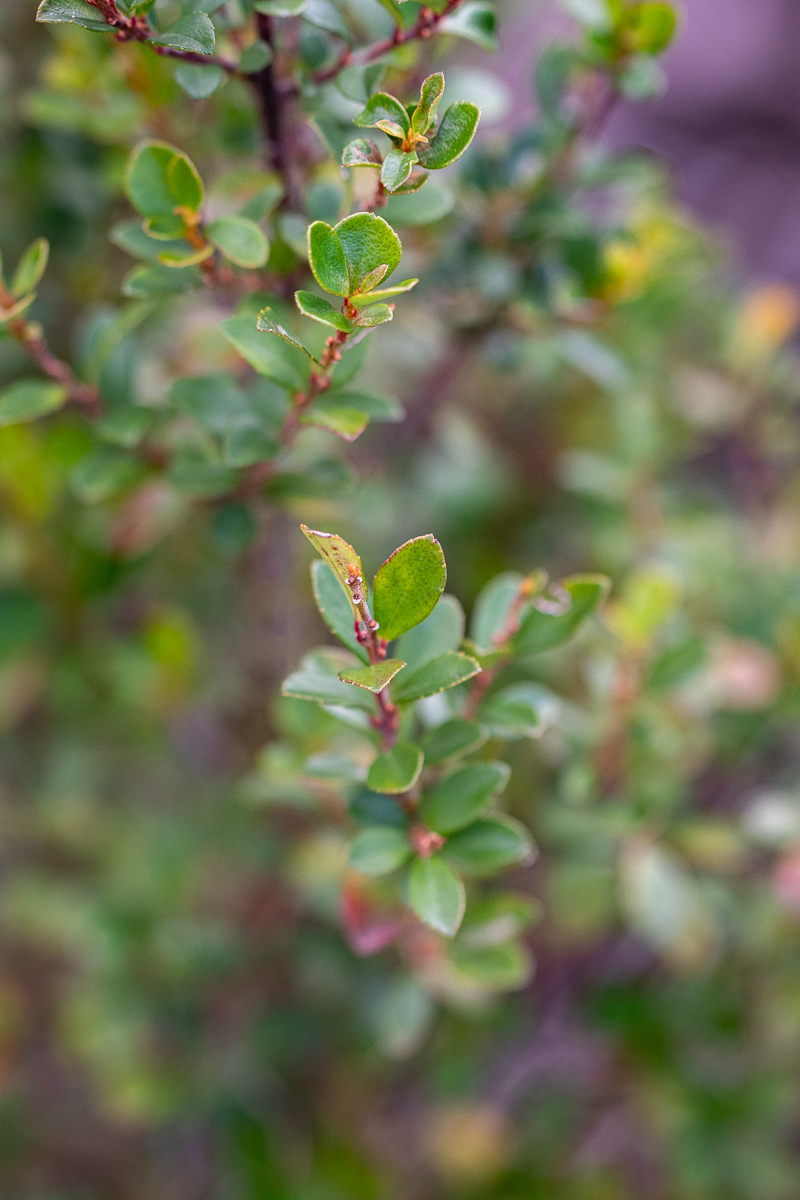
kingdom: Plantae
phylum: Tracheophyta
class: Magnoliopsida
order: Ericales
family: Primulaceae
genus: Myrsine
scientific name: Myrsine africana
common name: African-boxwood
